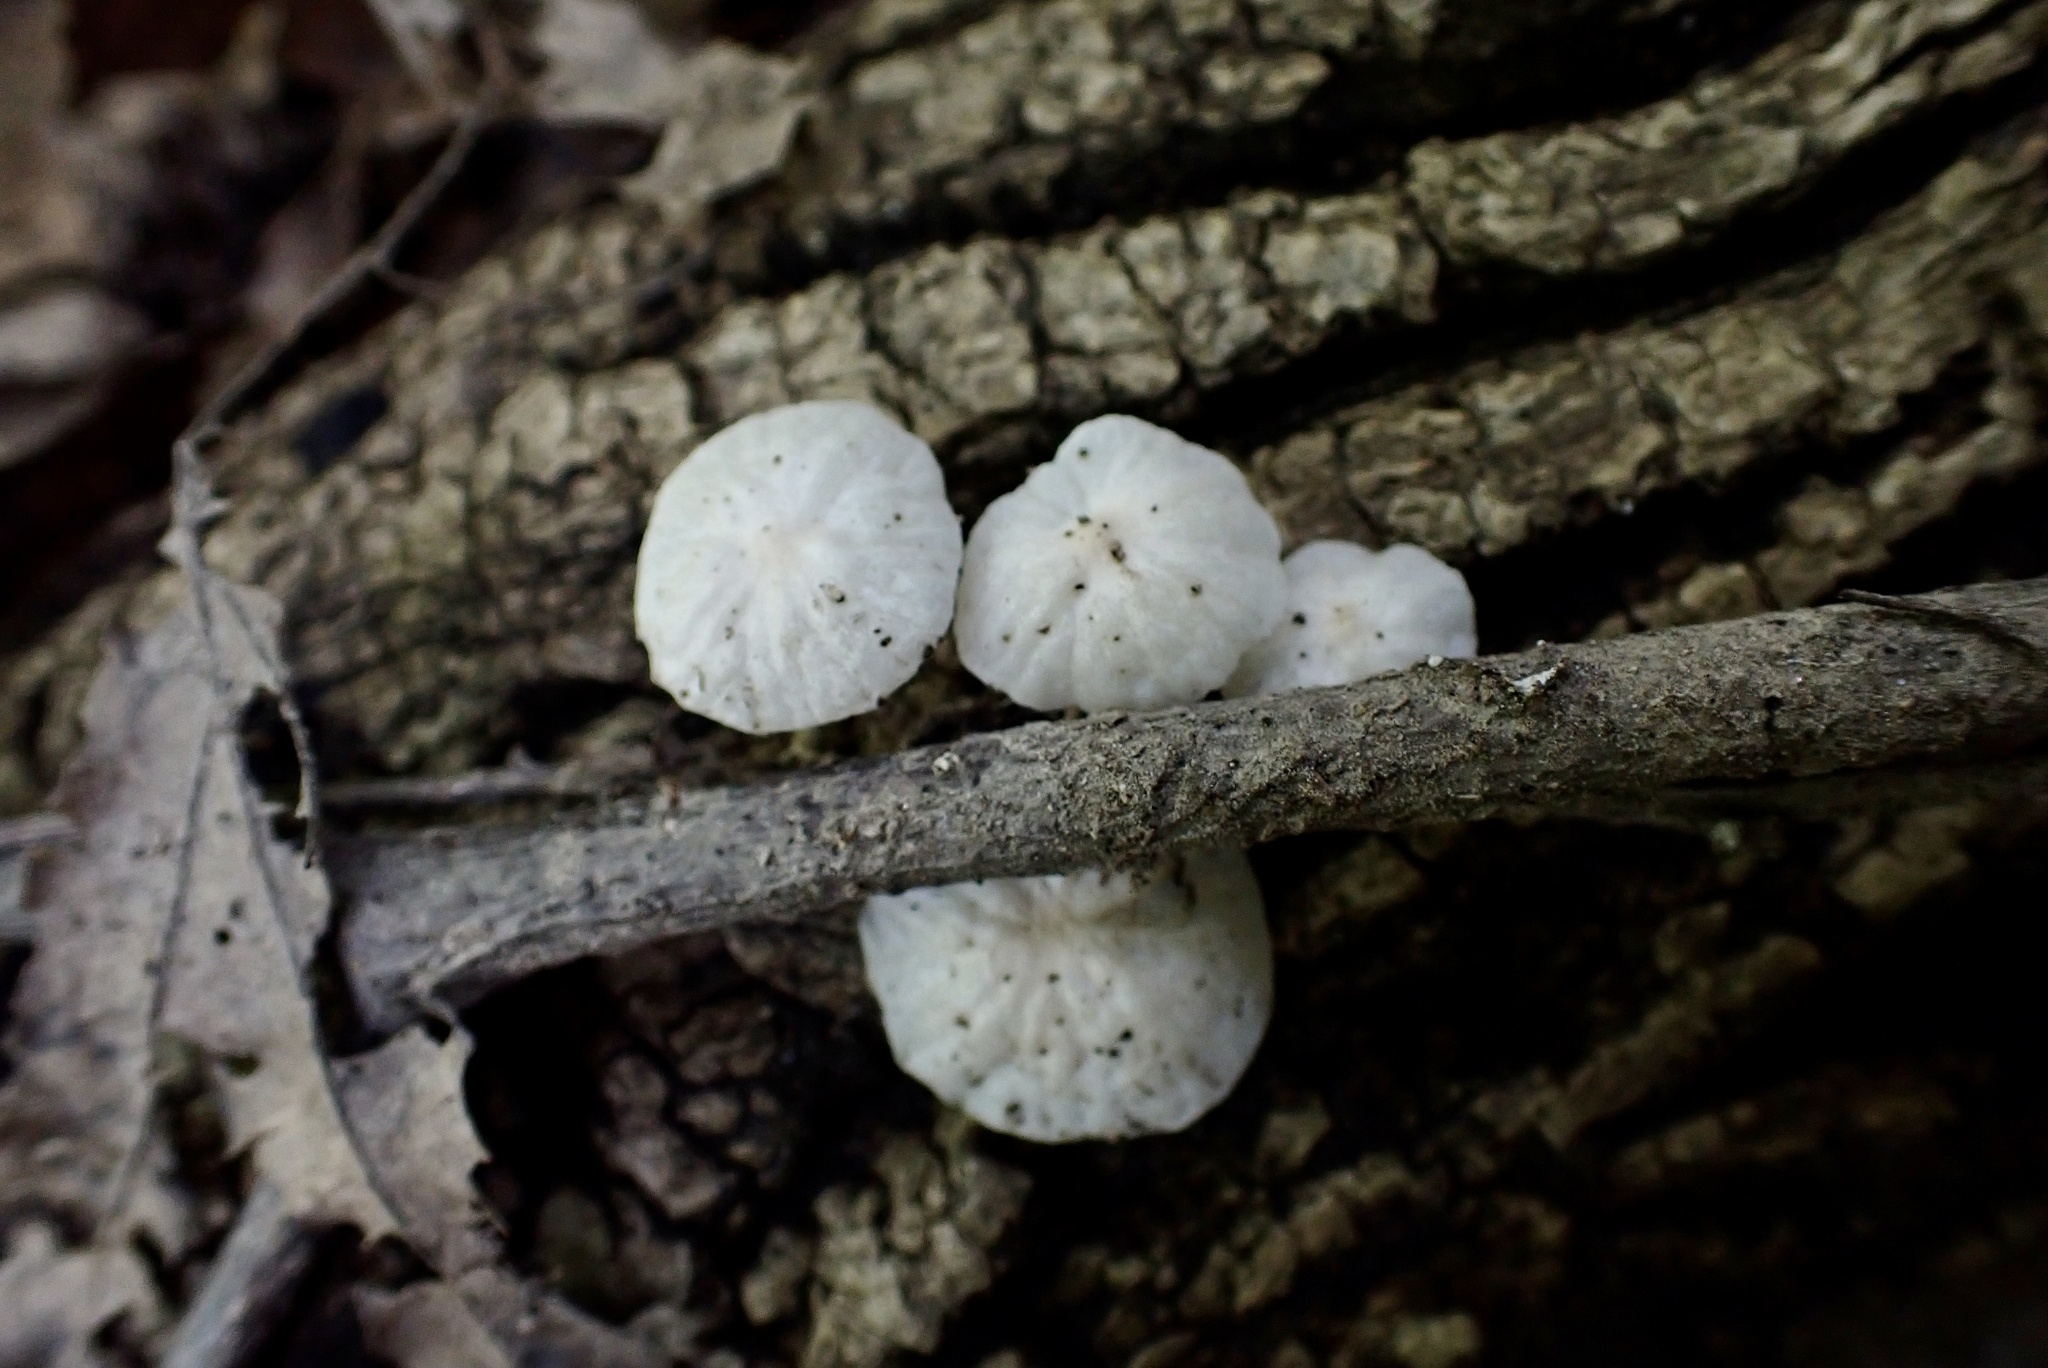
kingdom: Fungi
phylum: Basidiomycota
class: Agaricomycetes
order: Agaricales
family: Marasmiaceae
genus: Tetrapyrgos
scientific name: Tetrapyrgos nigripes
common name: Black-stalked marasmius
